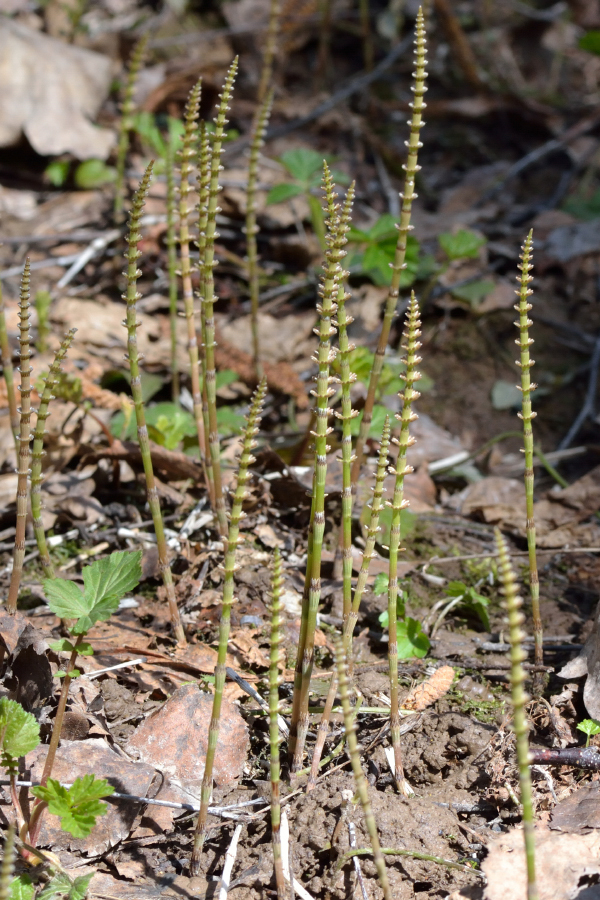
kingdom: Plantae
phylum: Tracheophyta
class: Polypodiopsida
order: Equisetales
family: Equisetaceae
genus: Equisetum
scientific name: Equisetum pratense
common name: Meadow horsetail
